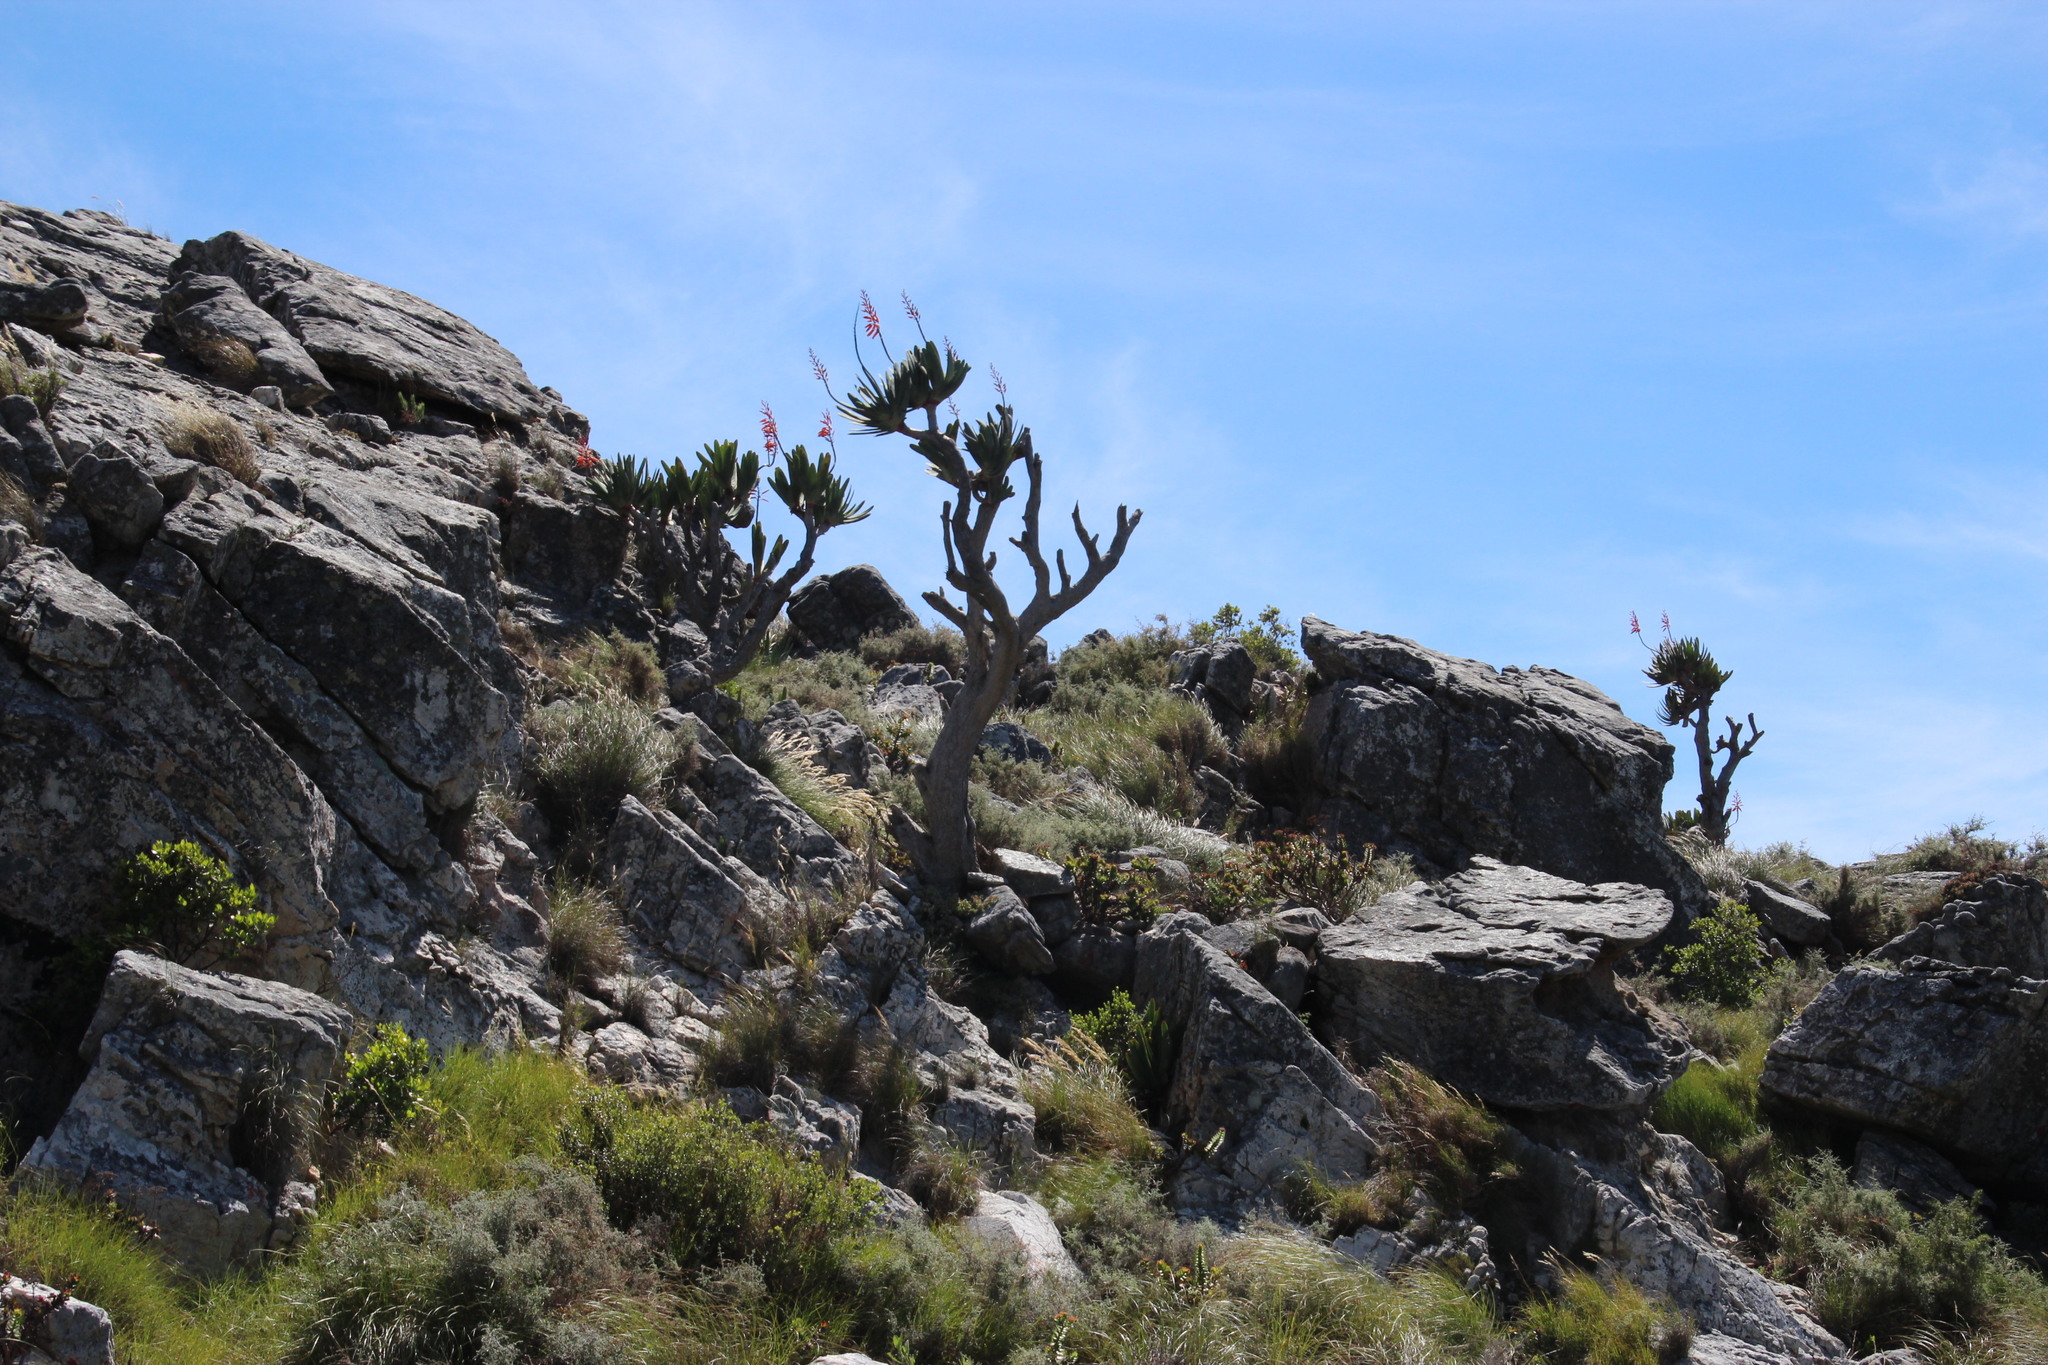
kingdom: Plantae
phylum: Tracheophyta
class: Liliopsida
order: Asparagales
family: Asphodelaceae
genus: Kumara
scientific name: Kumara plicatilis
